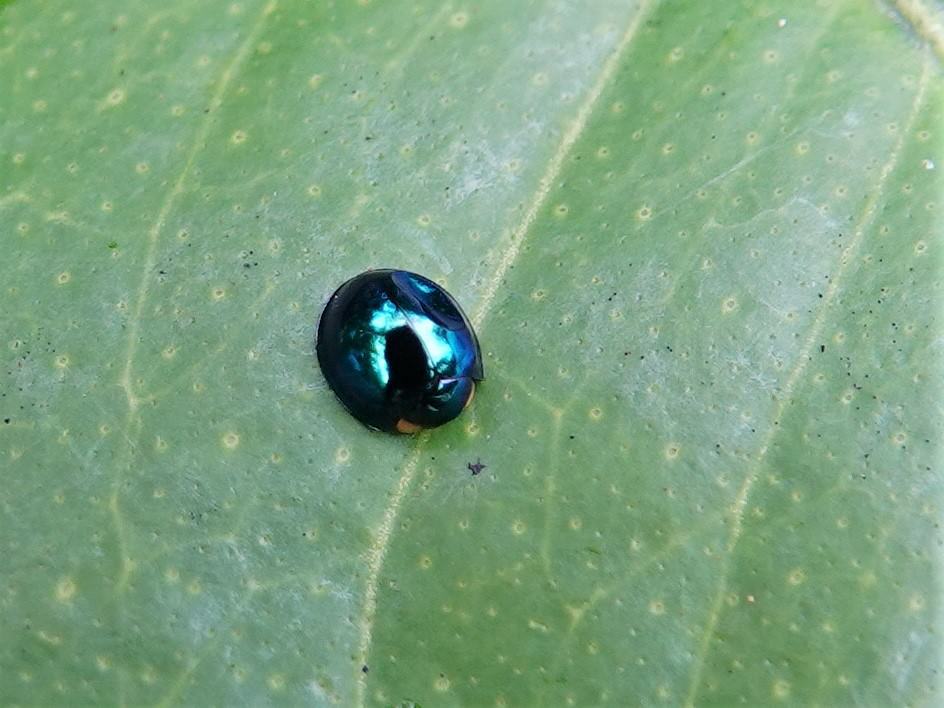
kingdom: Animalia
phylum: Arthropoda
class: Insecta
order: Coleoptera
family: Coccinellidae
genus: Halmus
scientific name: Halmus chalybeus
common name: Steel blue ladybird beetle
